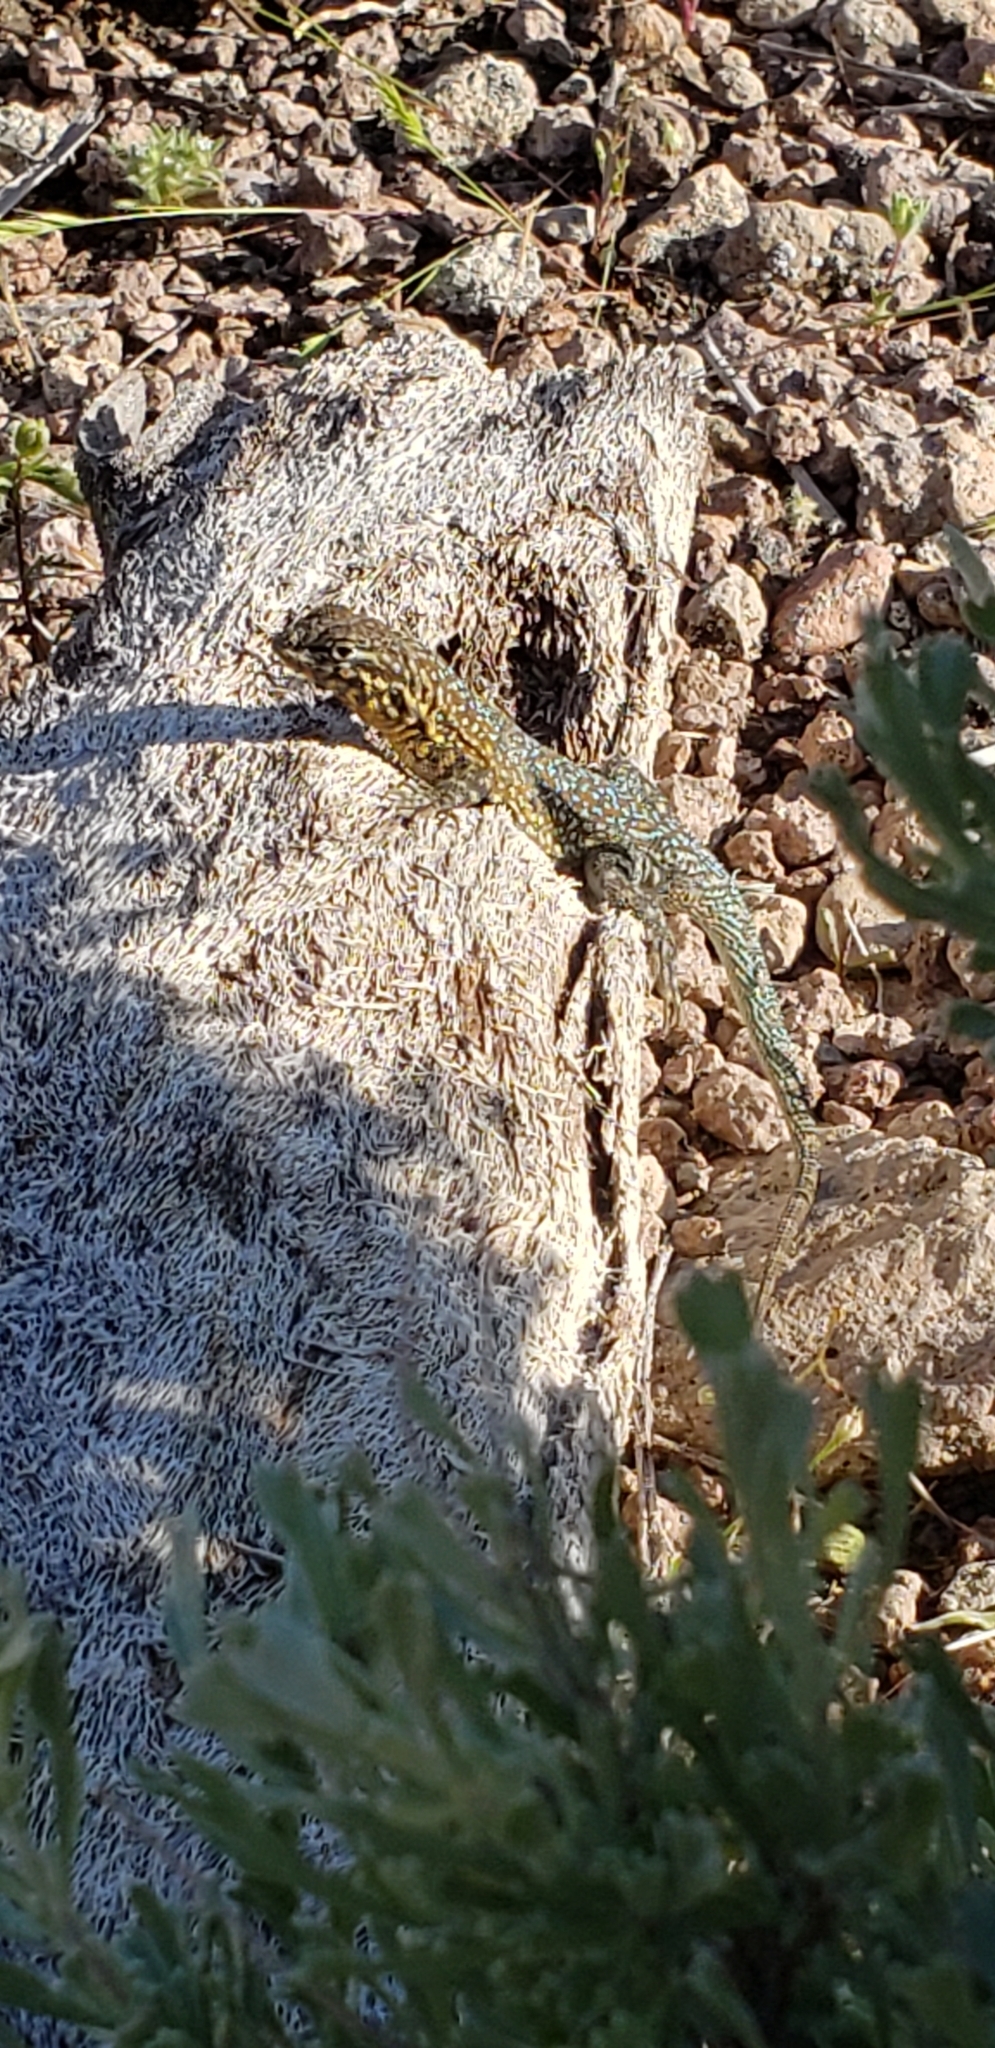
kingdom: Animalia
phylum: Chordata
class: Squamata
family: Phrynosomatidae
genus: Uta
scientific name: Uta stansburiana
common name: Side-blotched lizard
